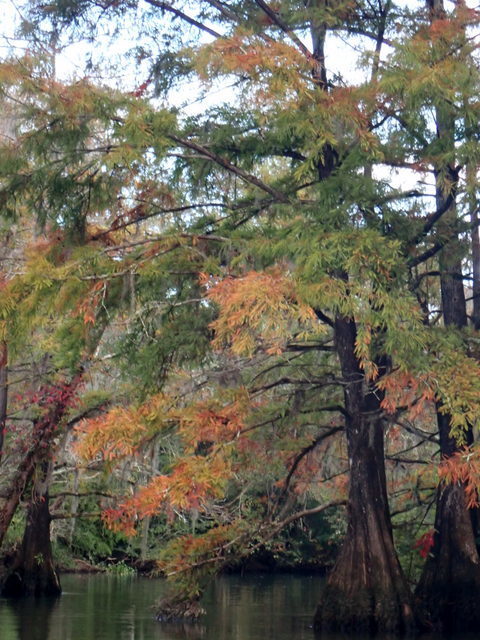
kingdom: Plantae
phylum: Tracheophyta
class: Pinopsida
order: Pinales
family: Cupressaceae
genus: Taxodium
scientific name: Taxodium distichum
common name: Bald cypress
